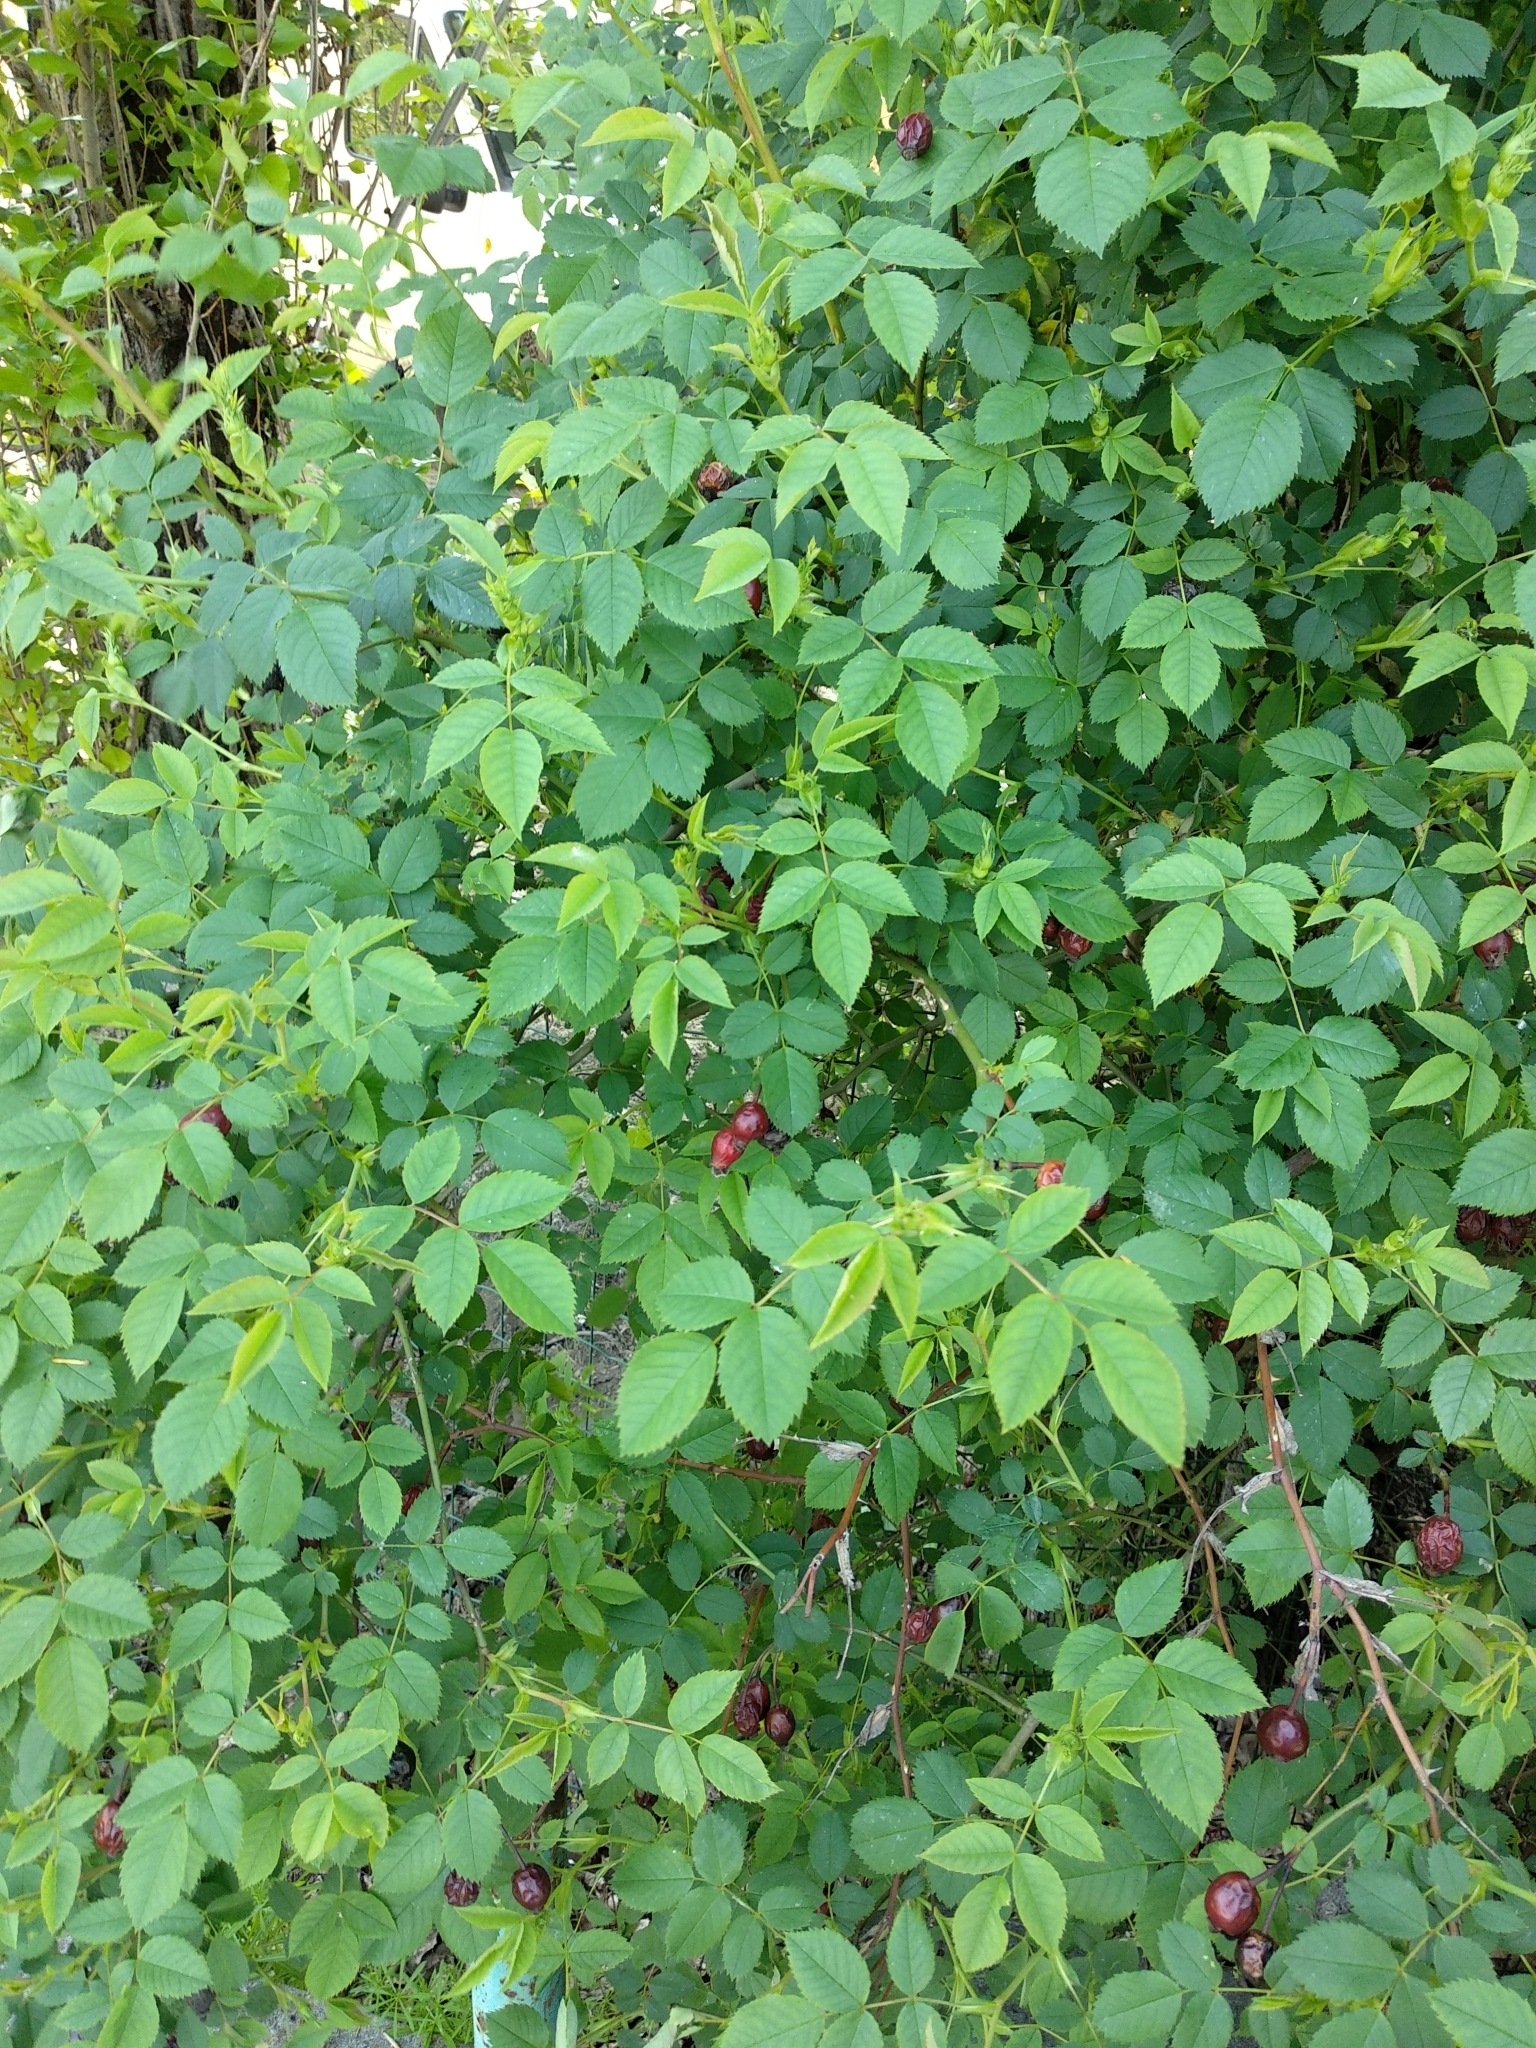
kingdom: Plantae
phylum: Tracheophyta
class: Magnoliopsida
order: Rosales
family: Rosaceae
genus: Rosa
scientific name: Rosa canina
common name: Dog rose
